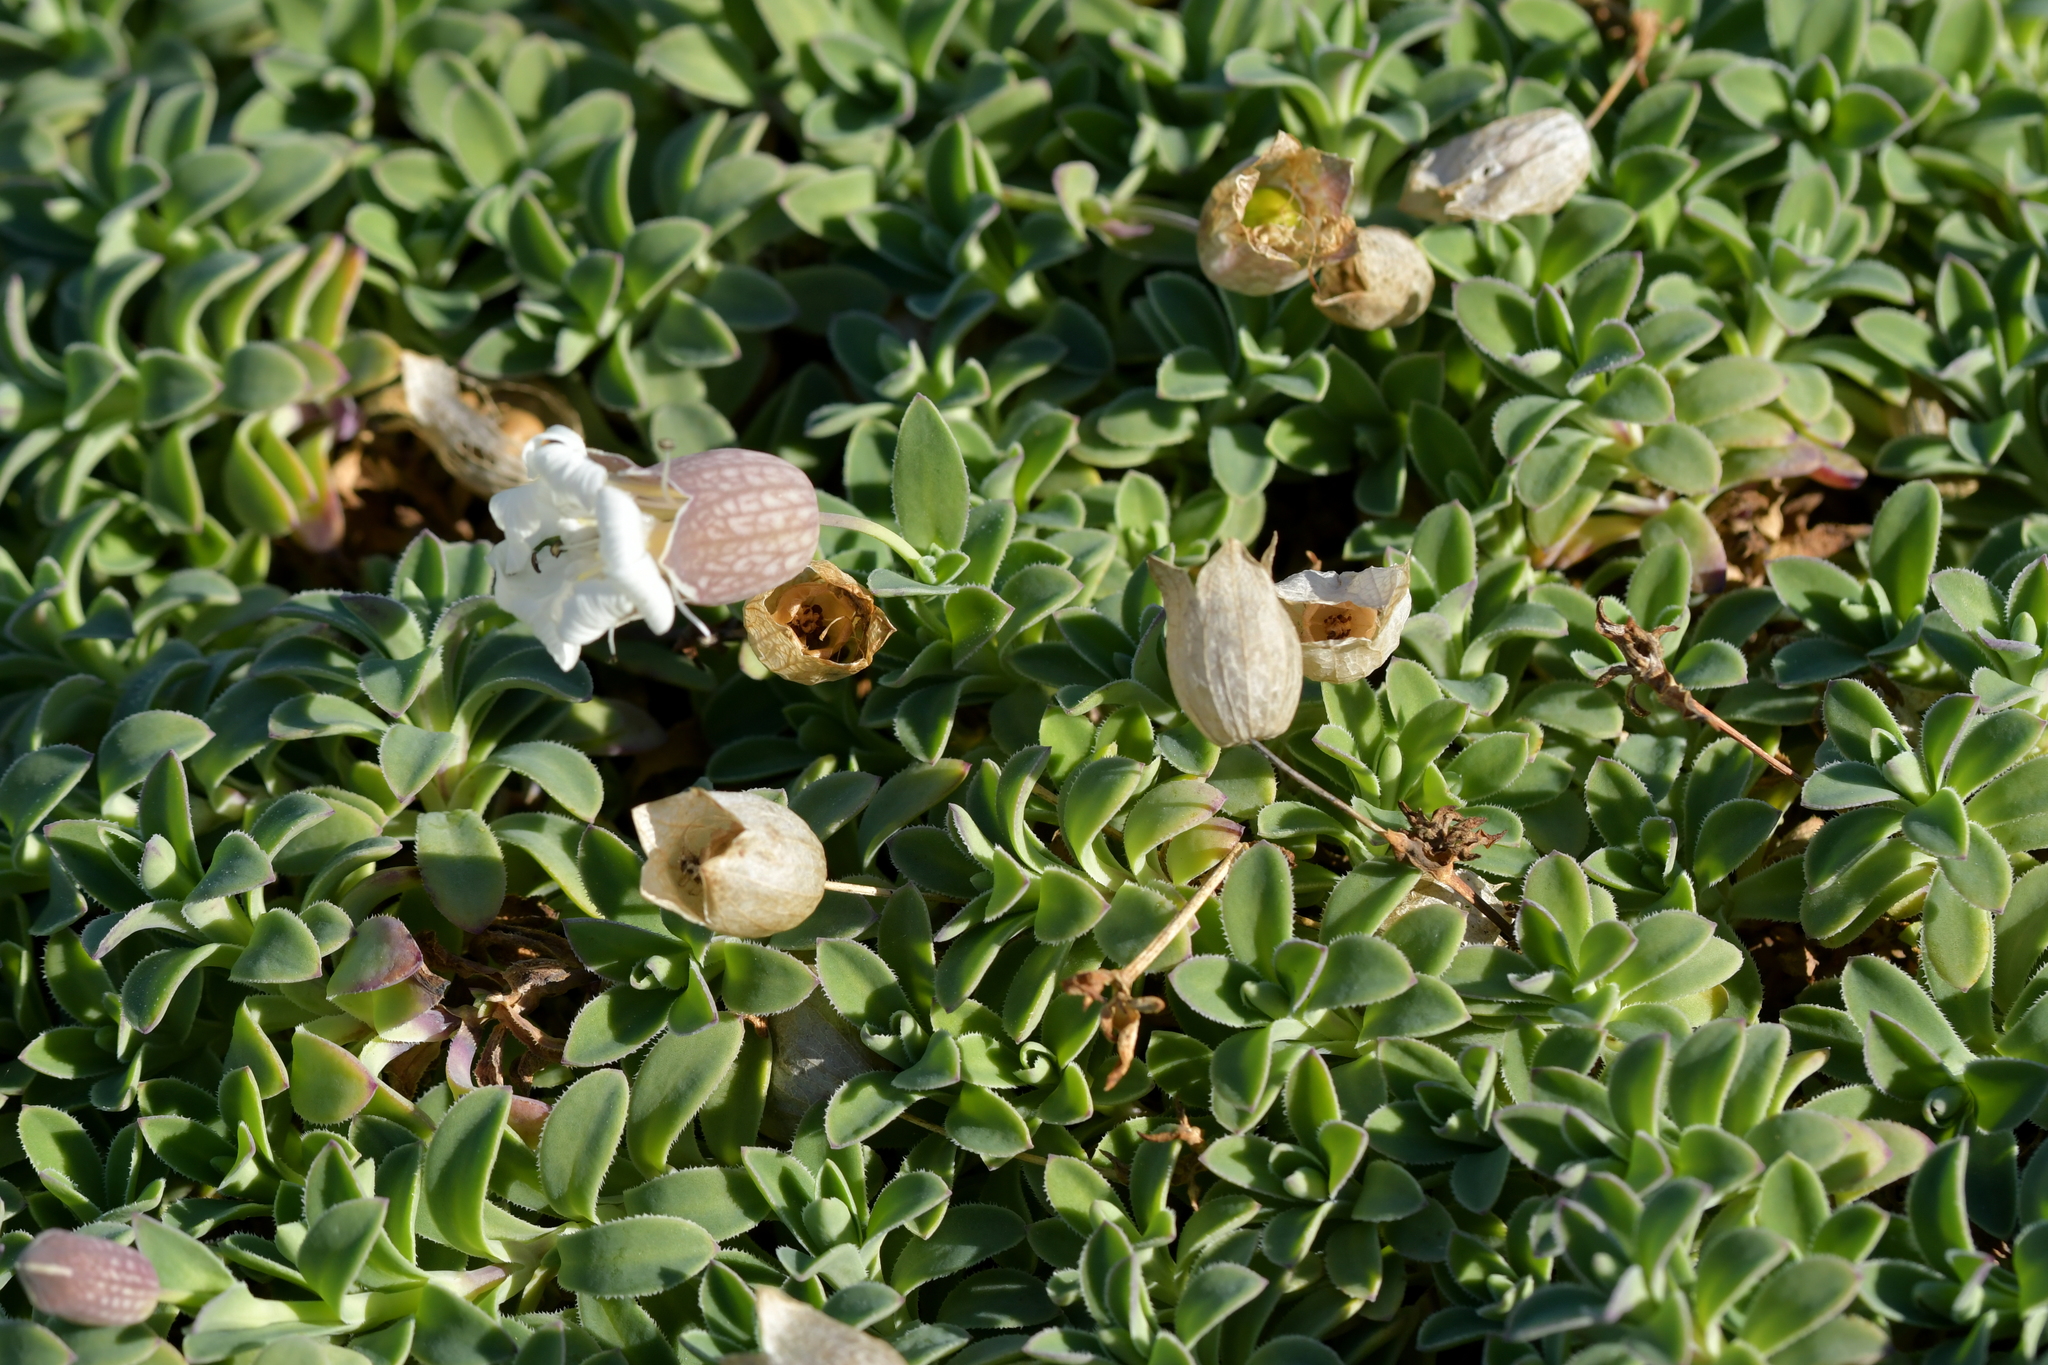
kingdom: Plantae
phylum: Tracheophyta
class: Magnoliopsida
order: Caryophyllales
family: Caryophyllaceae
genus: Silene
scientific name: Silene uniflora
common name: Sea campion
